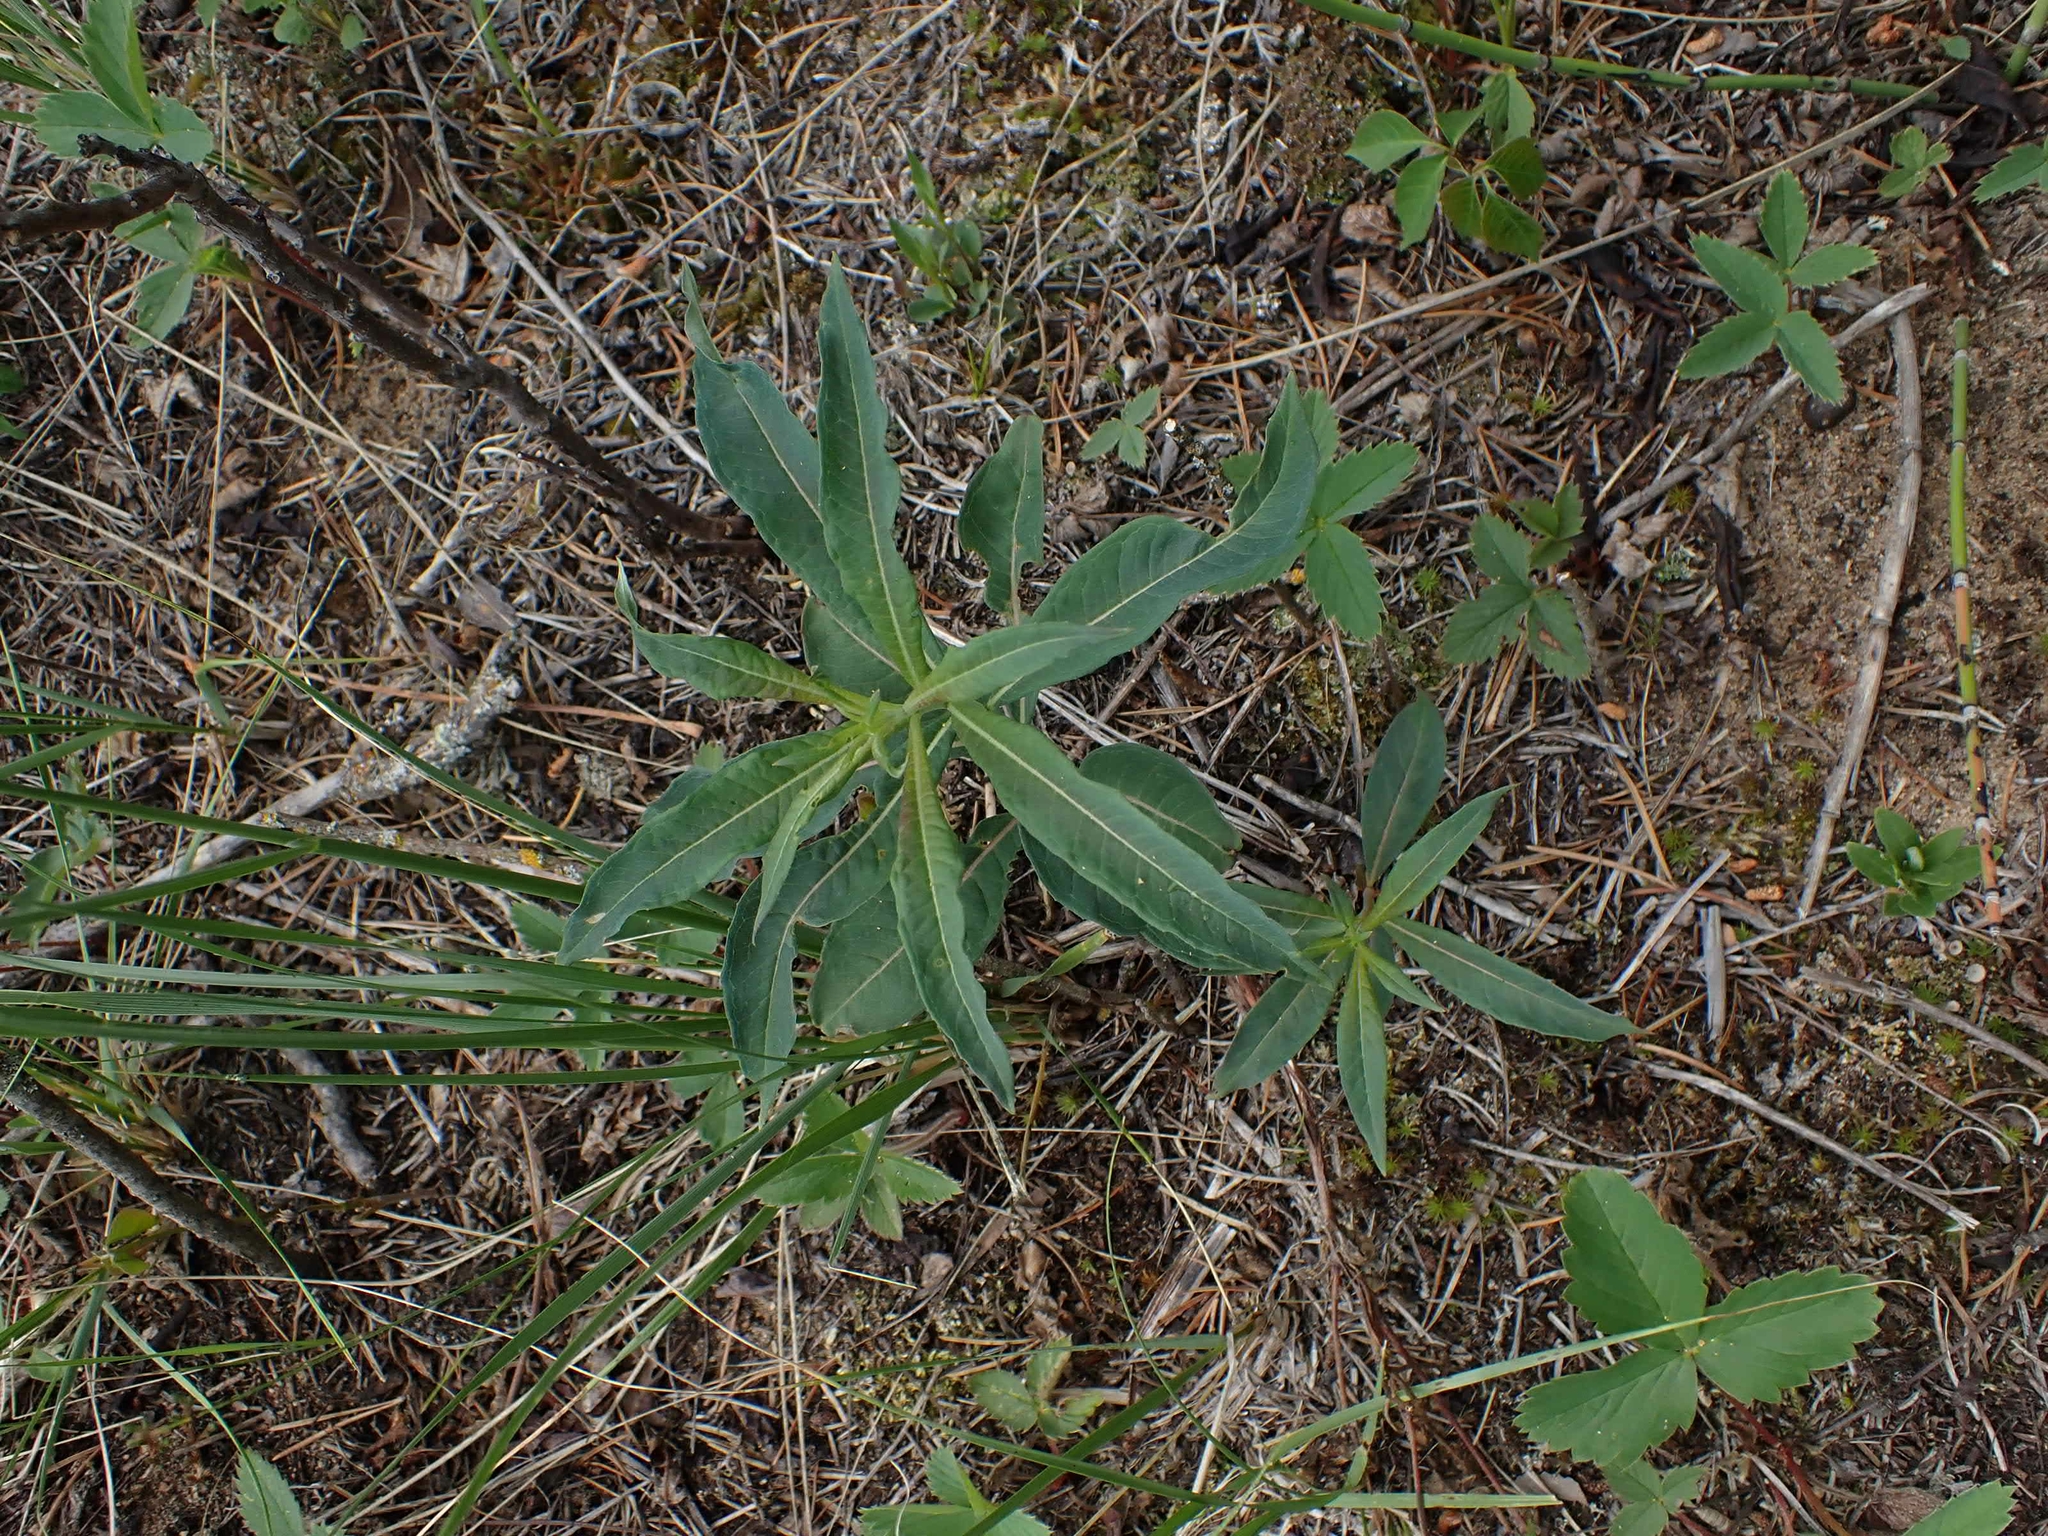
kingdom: Plantae
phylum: Tracheophyta
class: Magnoliopsida
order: Myrtales
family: Onagraceae
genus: Chamaenerion
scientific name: Chamaenerion angustifolium
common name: Fireweed
